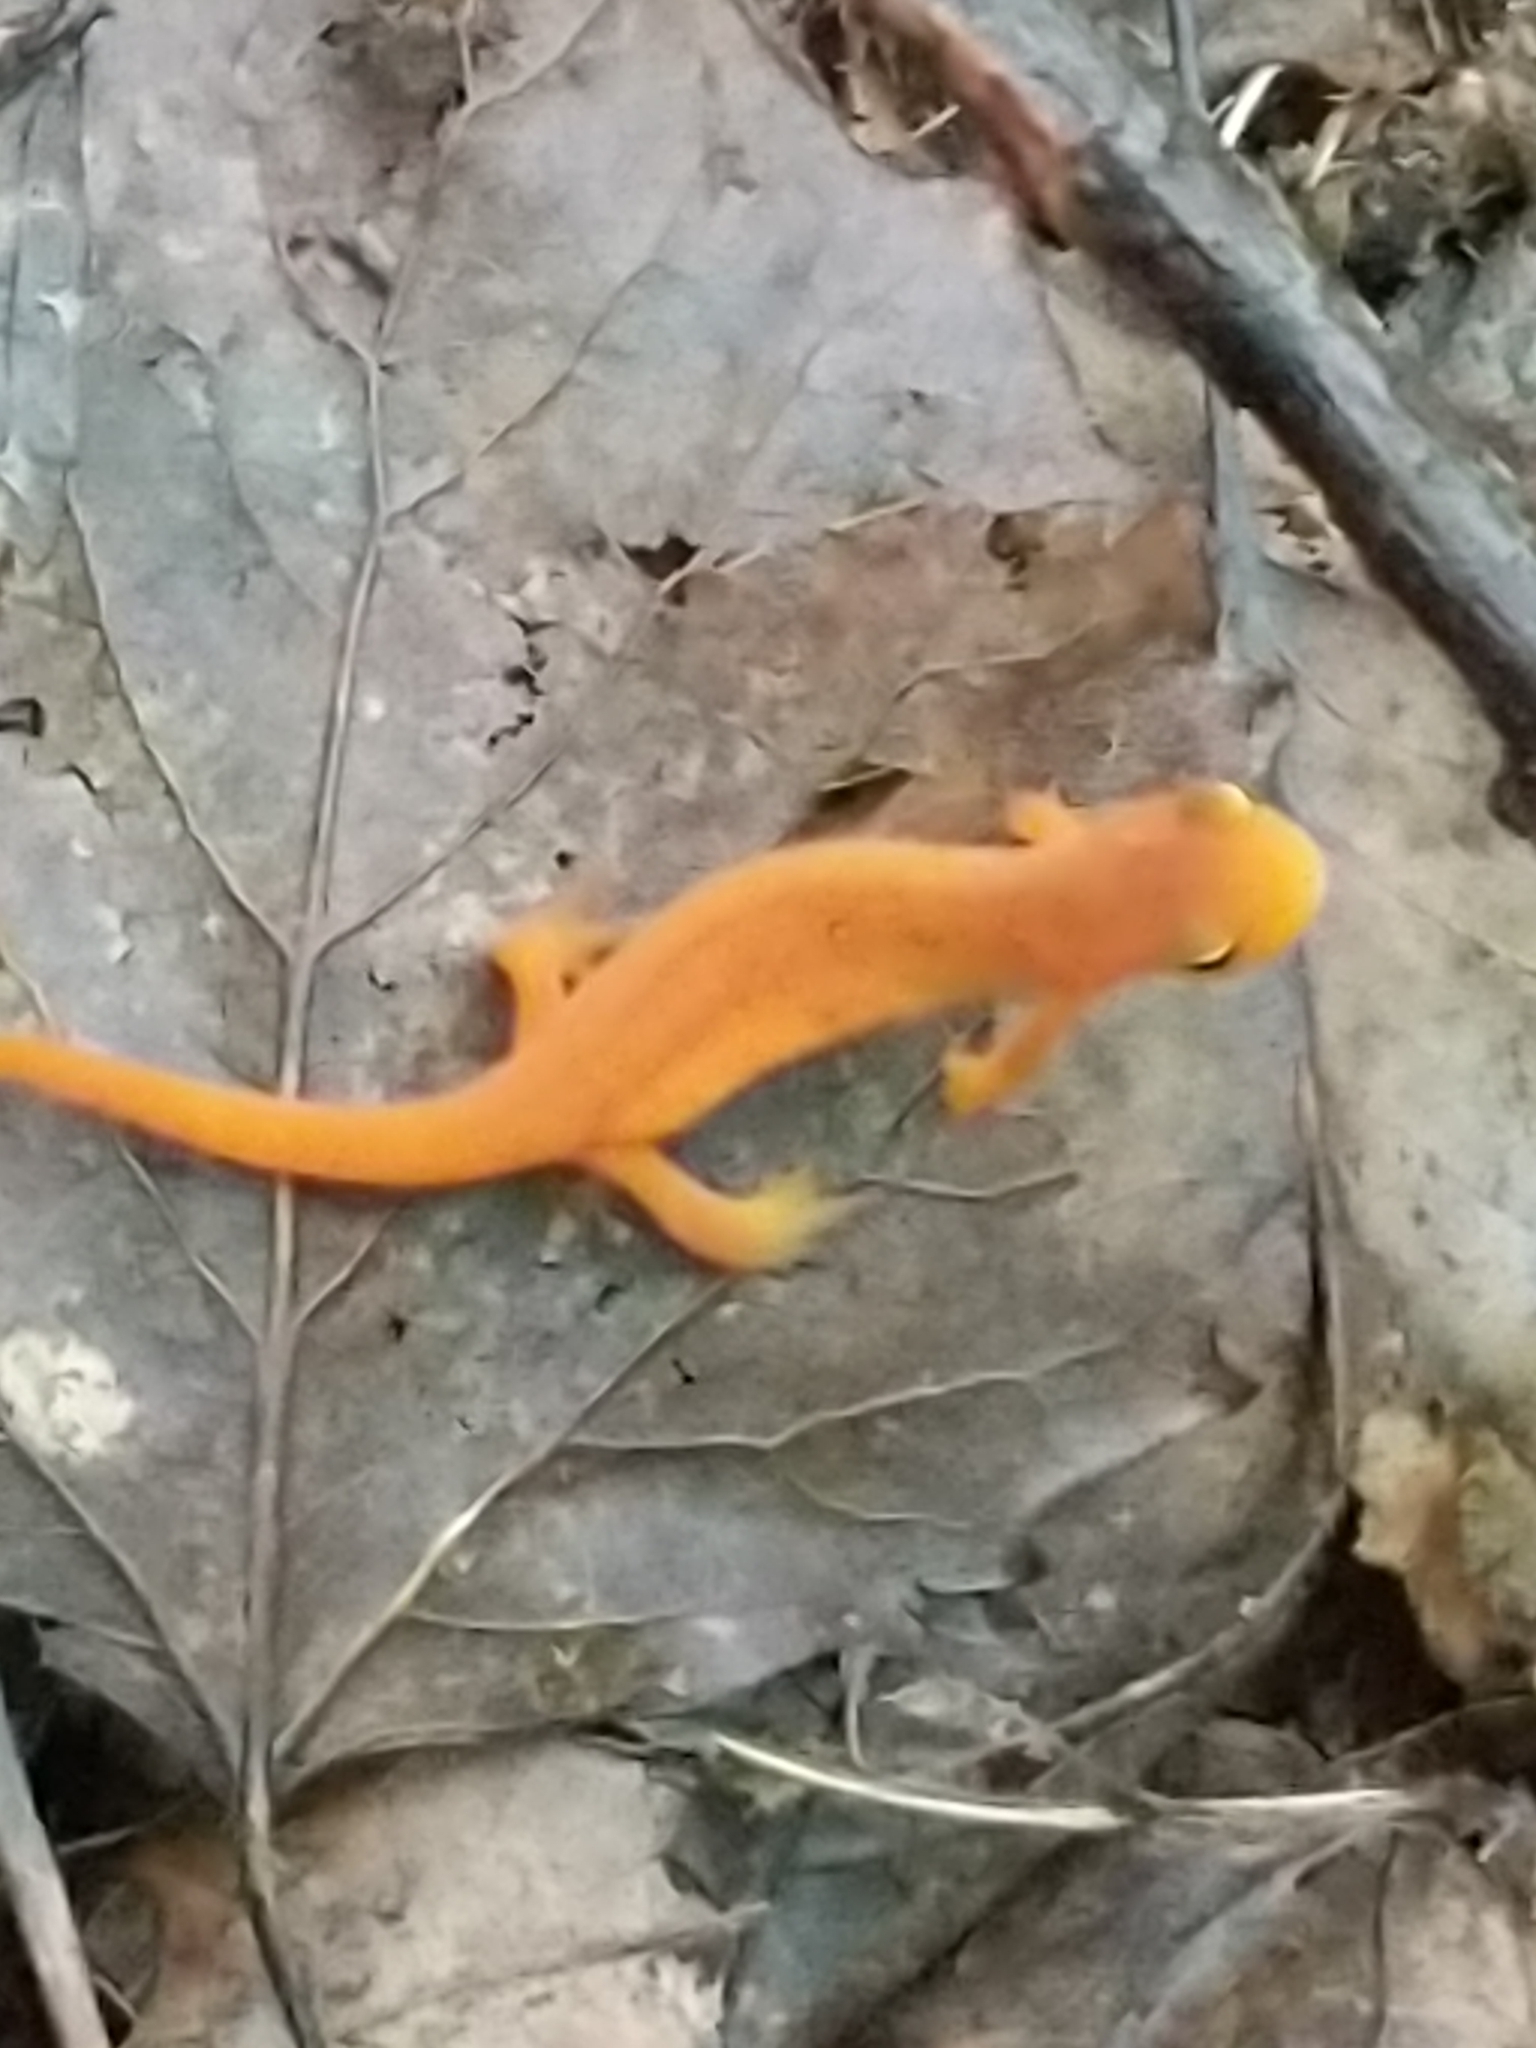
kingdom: Animalia
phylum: Chordata
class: Amphibia
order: Caudata
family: Salamandridae
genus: Notophthalmus
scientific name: Notophthalmus viridescens
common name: Eastern newt
